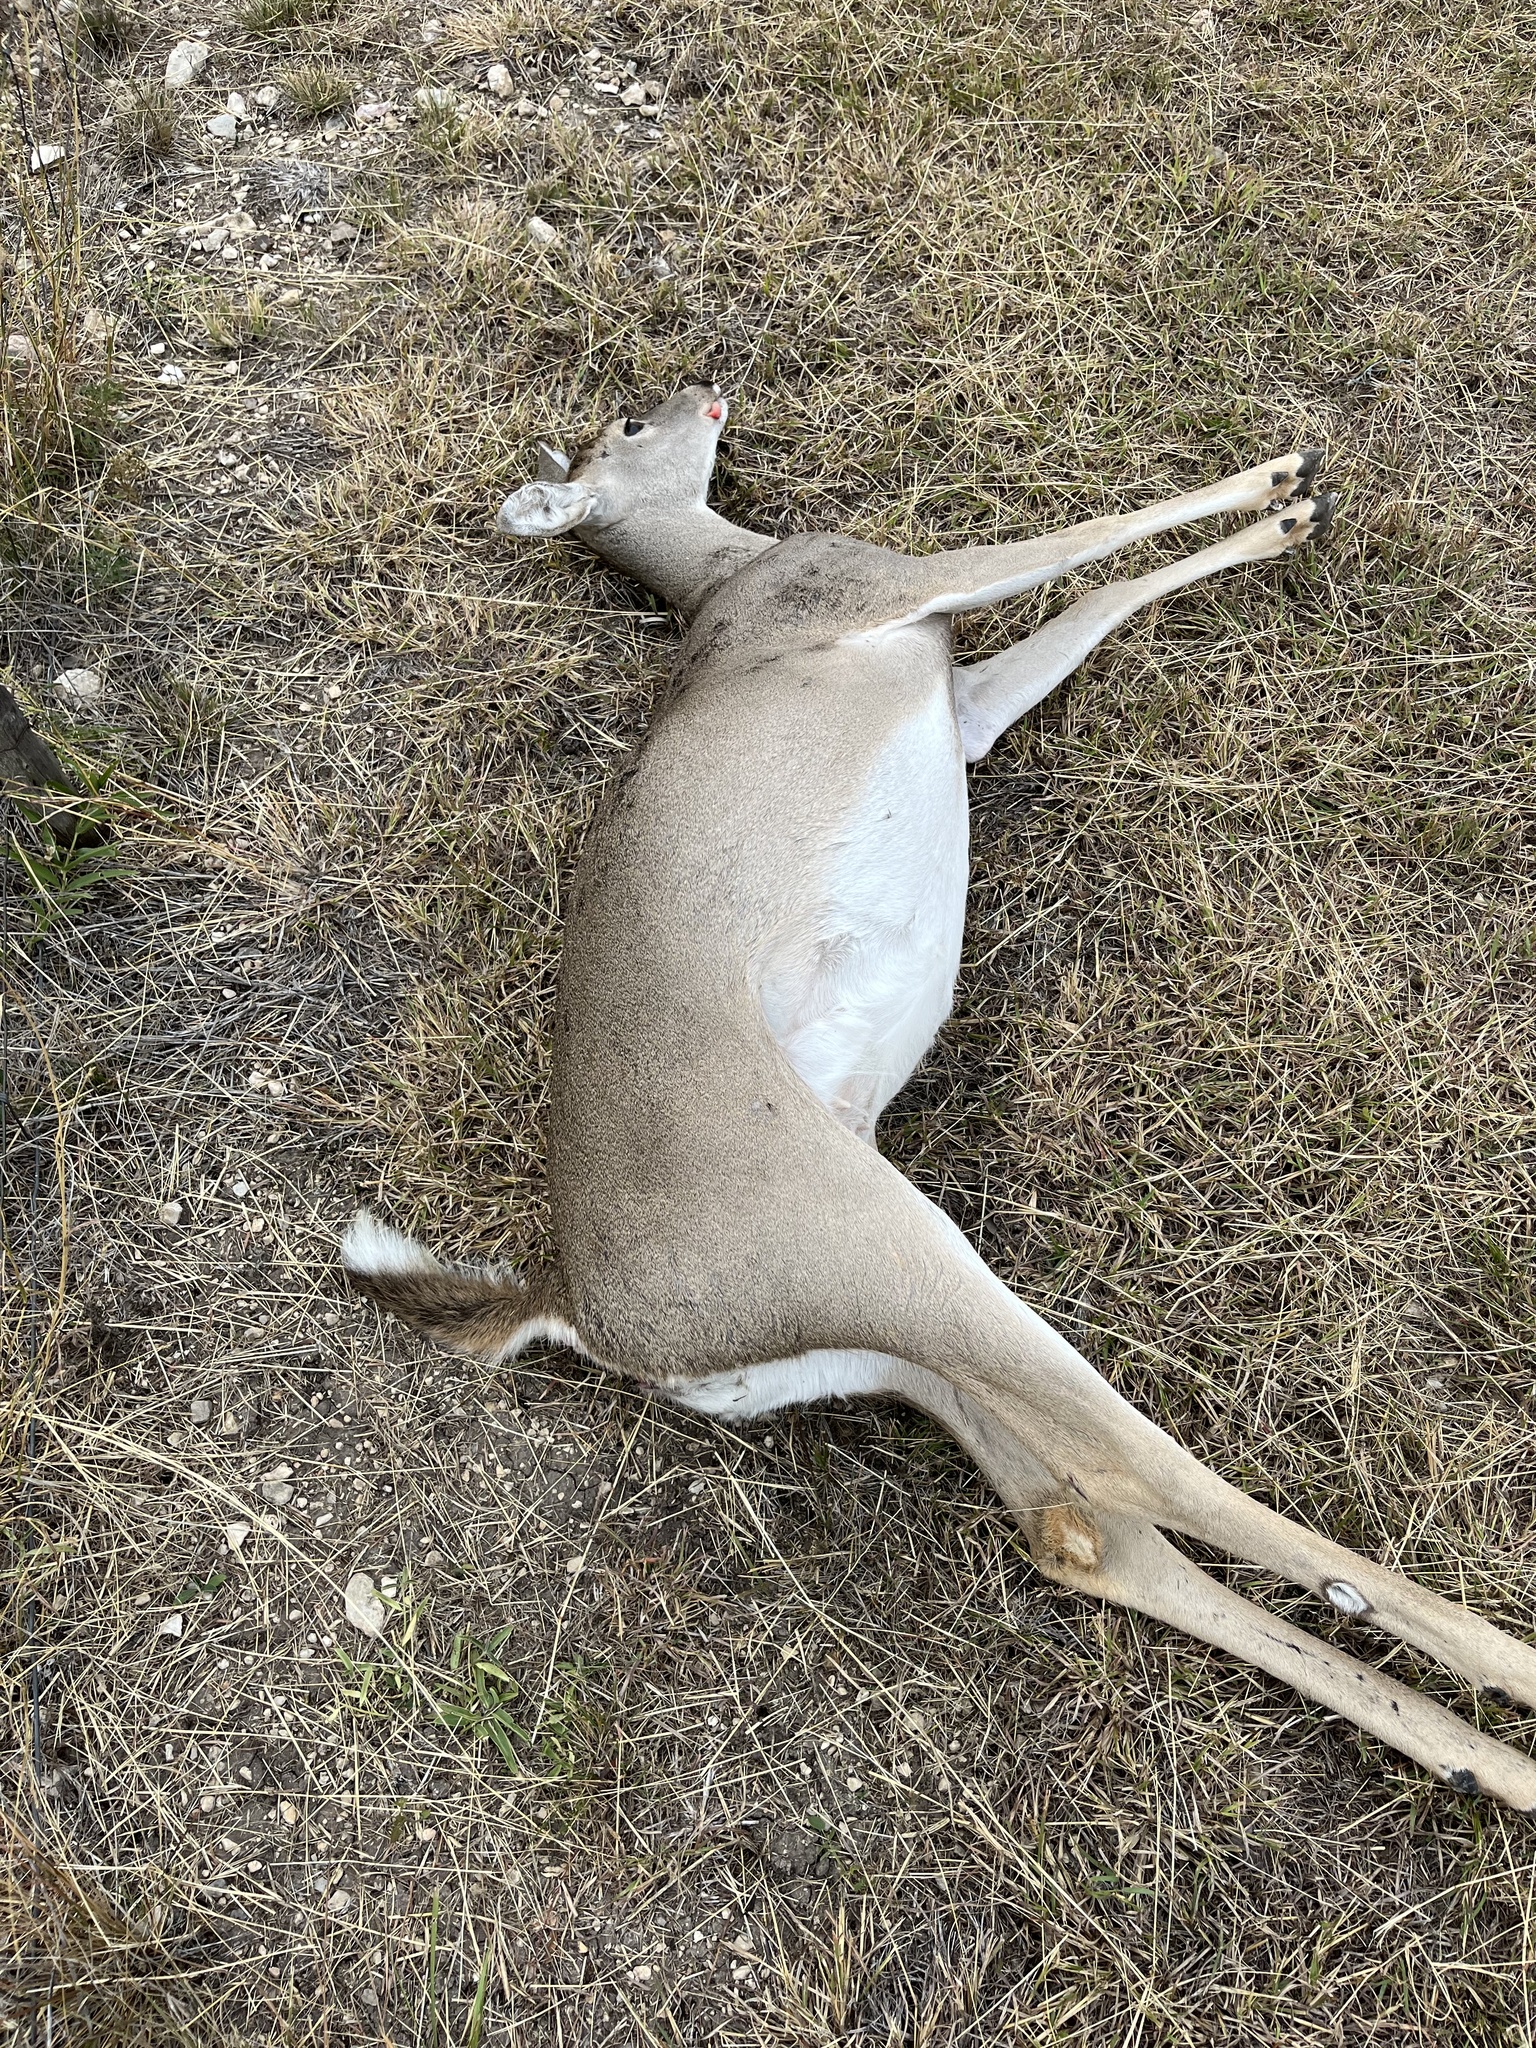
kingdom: Animalia
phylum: Chordata
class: Mammalia
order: Artiodactyla
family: Cervidae
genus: Odocoileus
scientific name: Odocoileus virginianus
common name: White-tailed deer
